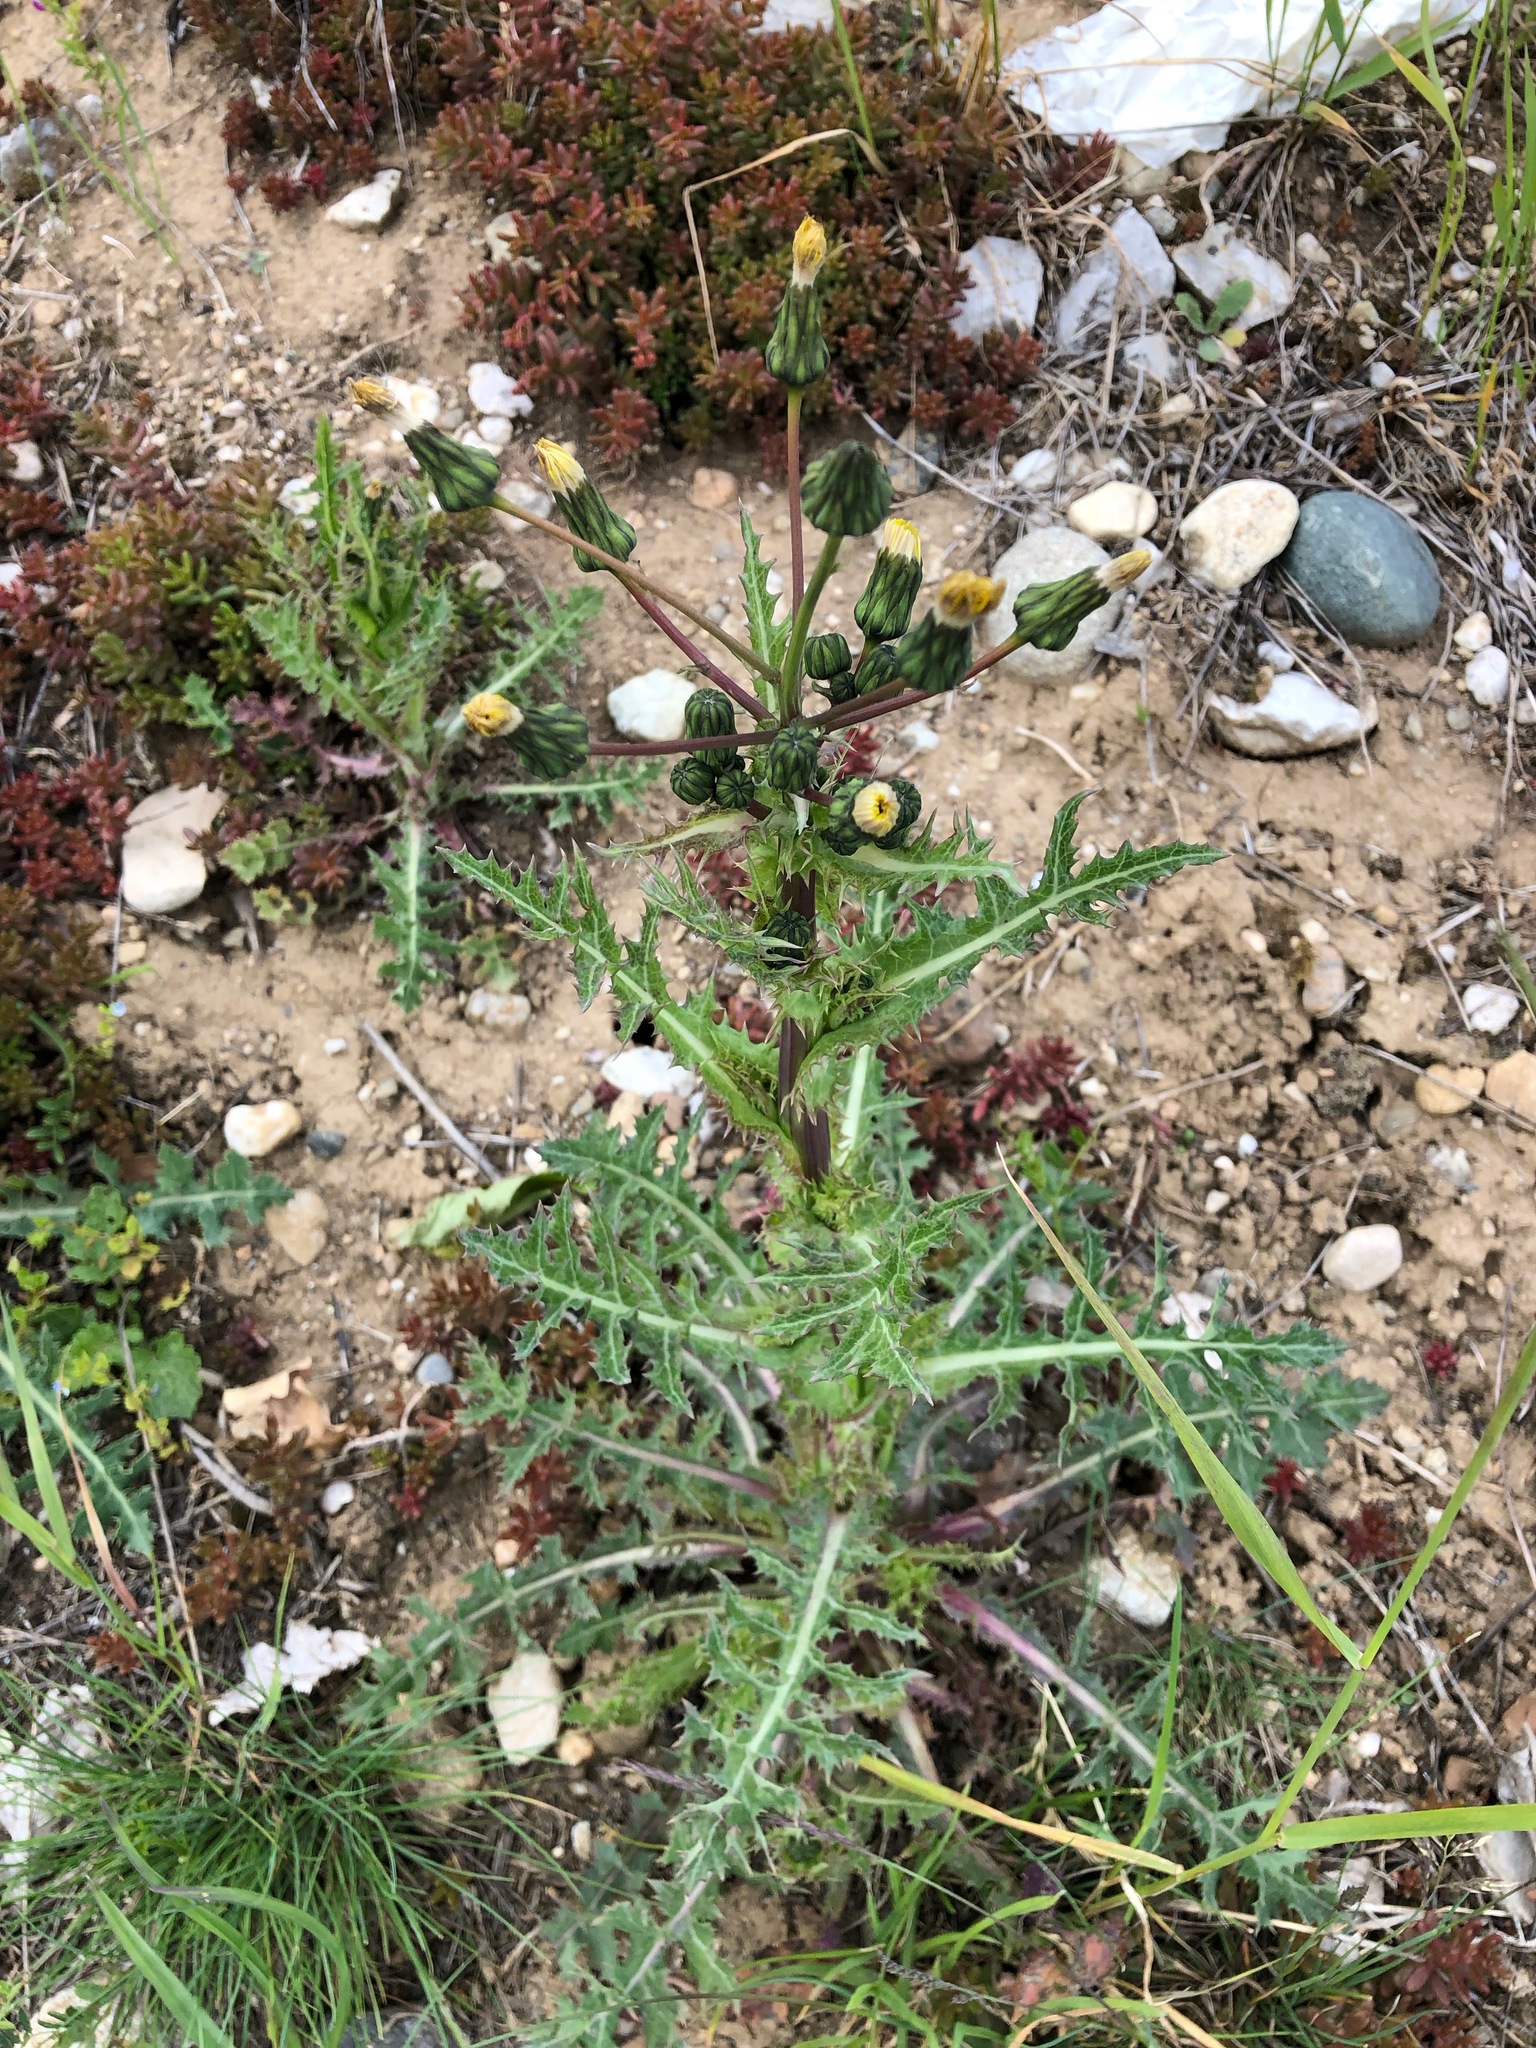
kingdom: Plantae
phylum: Tracheophyta
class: Magnoliopsida
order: Asterales
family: Asteraceae
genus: Sonchus
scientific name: Sonchus asper
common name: Prickly sow-thistle
